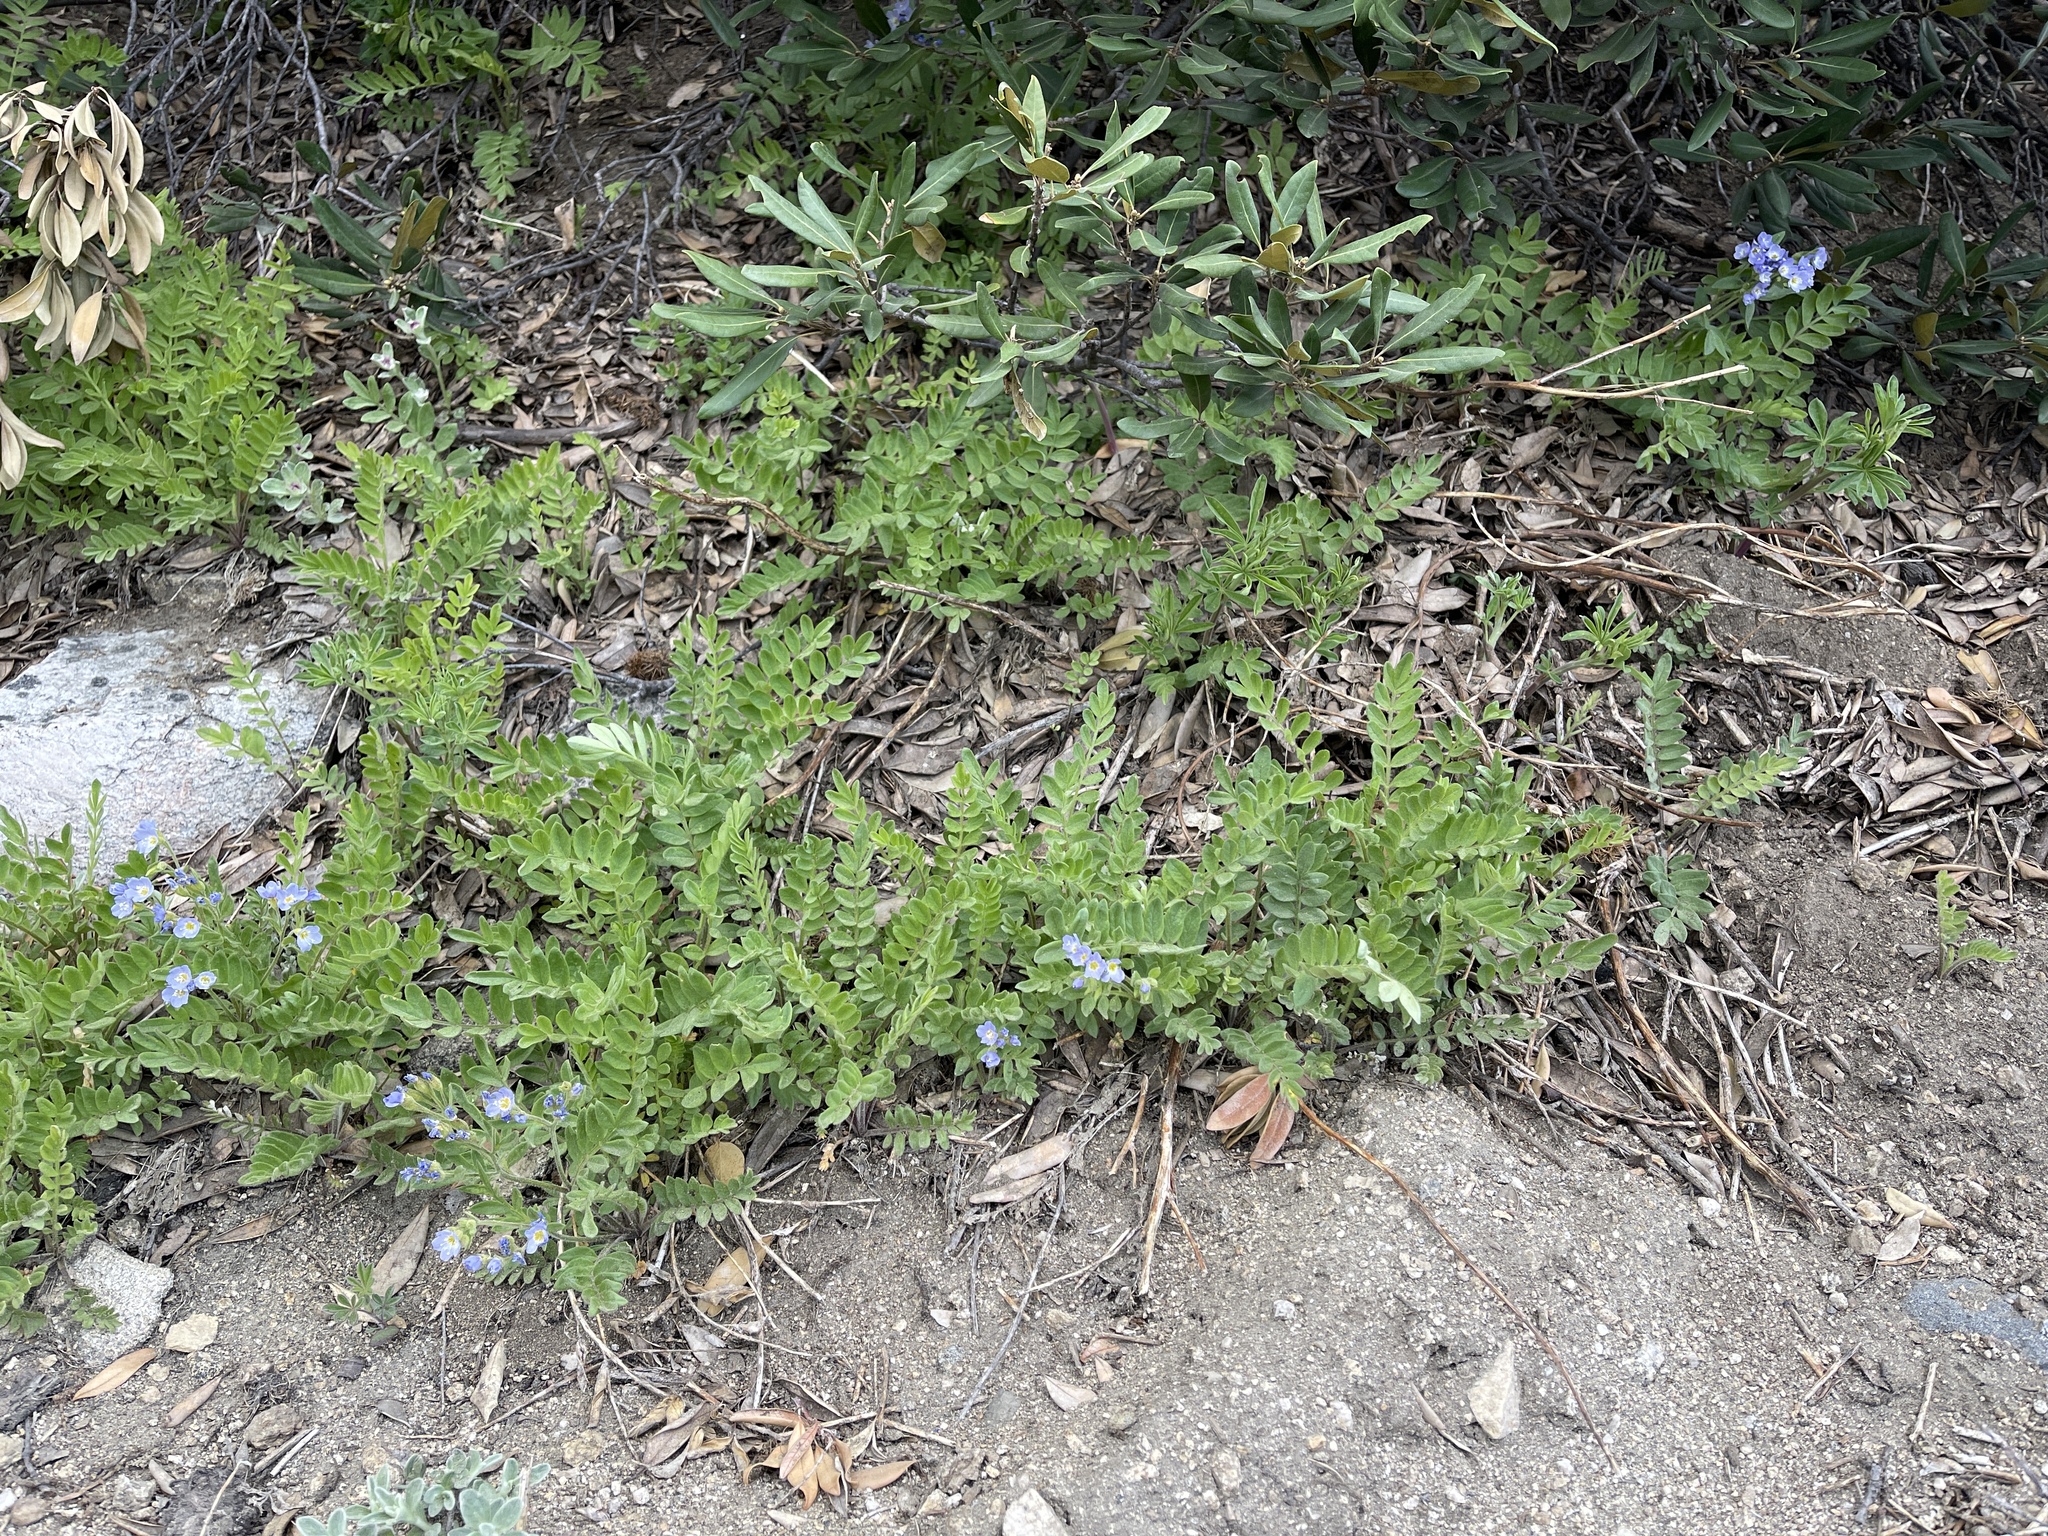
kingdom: Plantae
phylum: Tracheophyta
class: Magnoliopsida
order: Ericales
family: Polemoniaceae
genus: Polemonium
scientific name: Polemonium californicum
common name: California jacob's ladder
